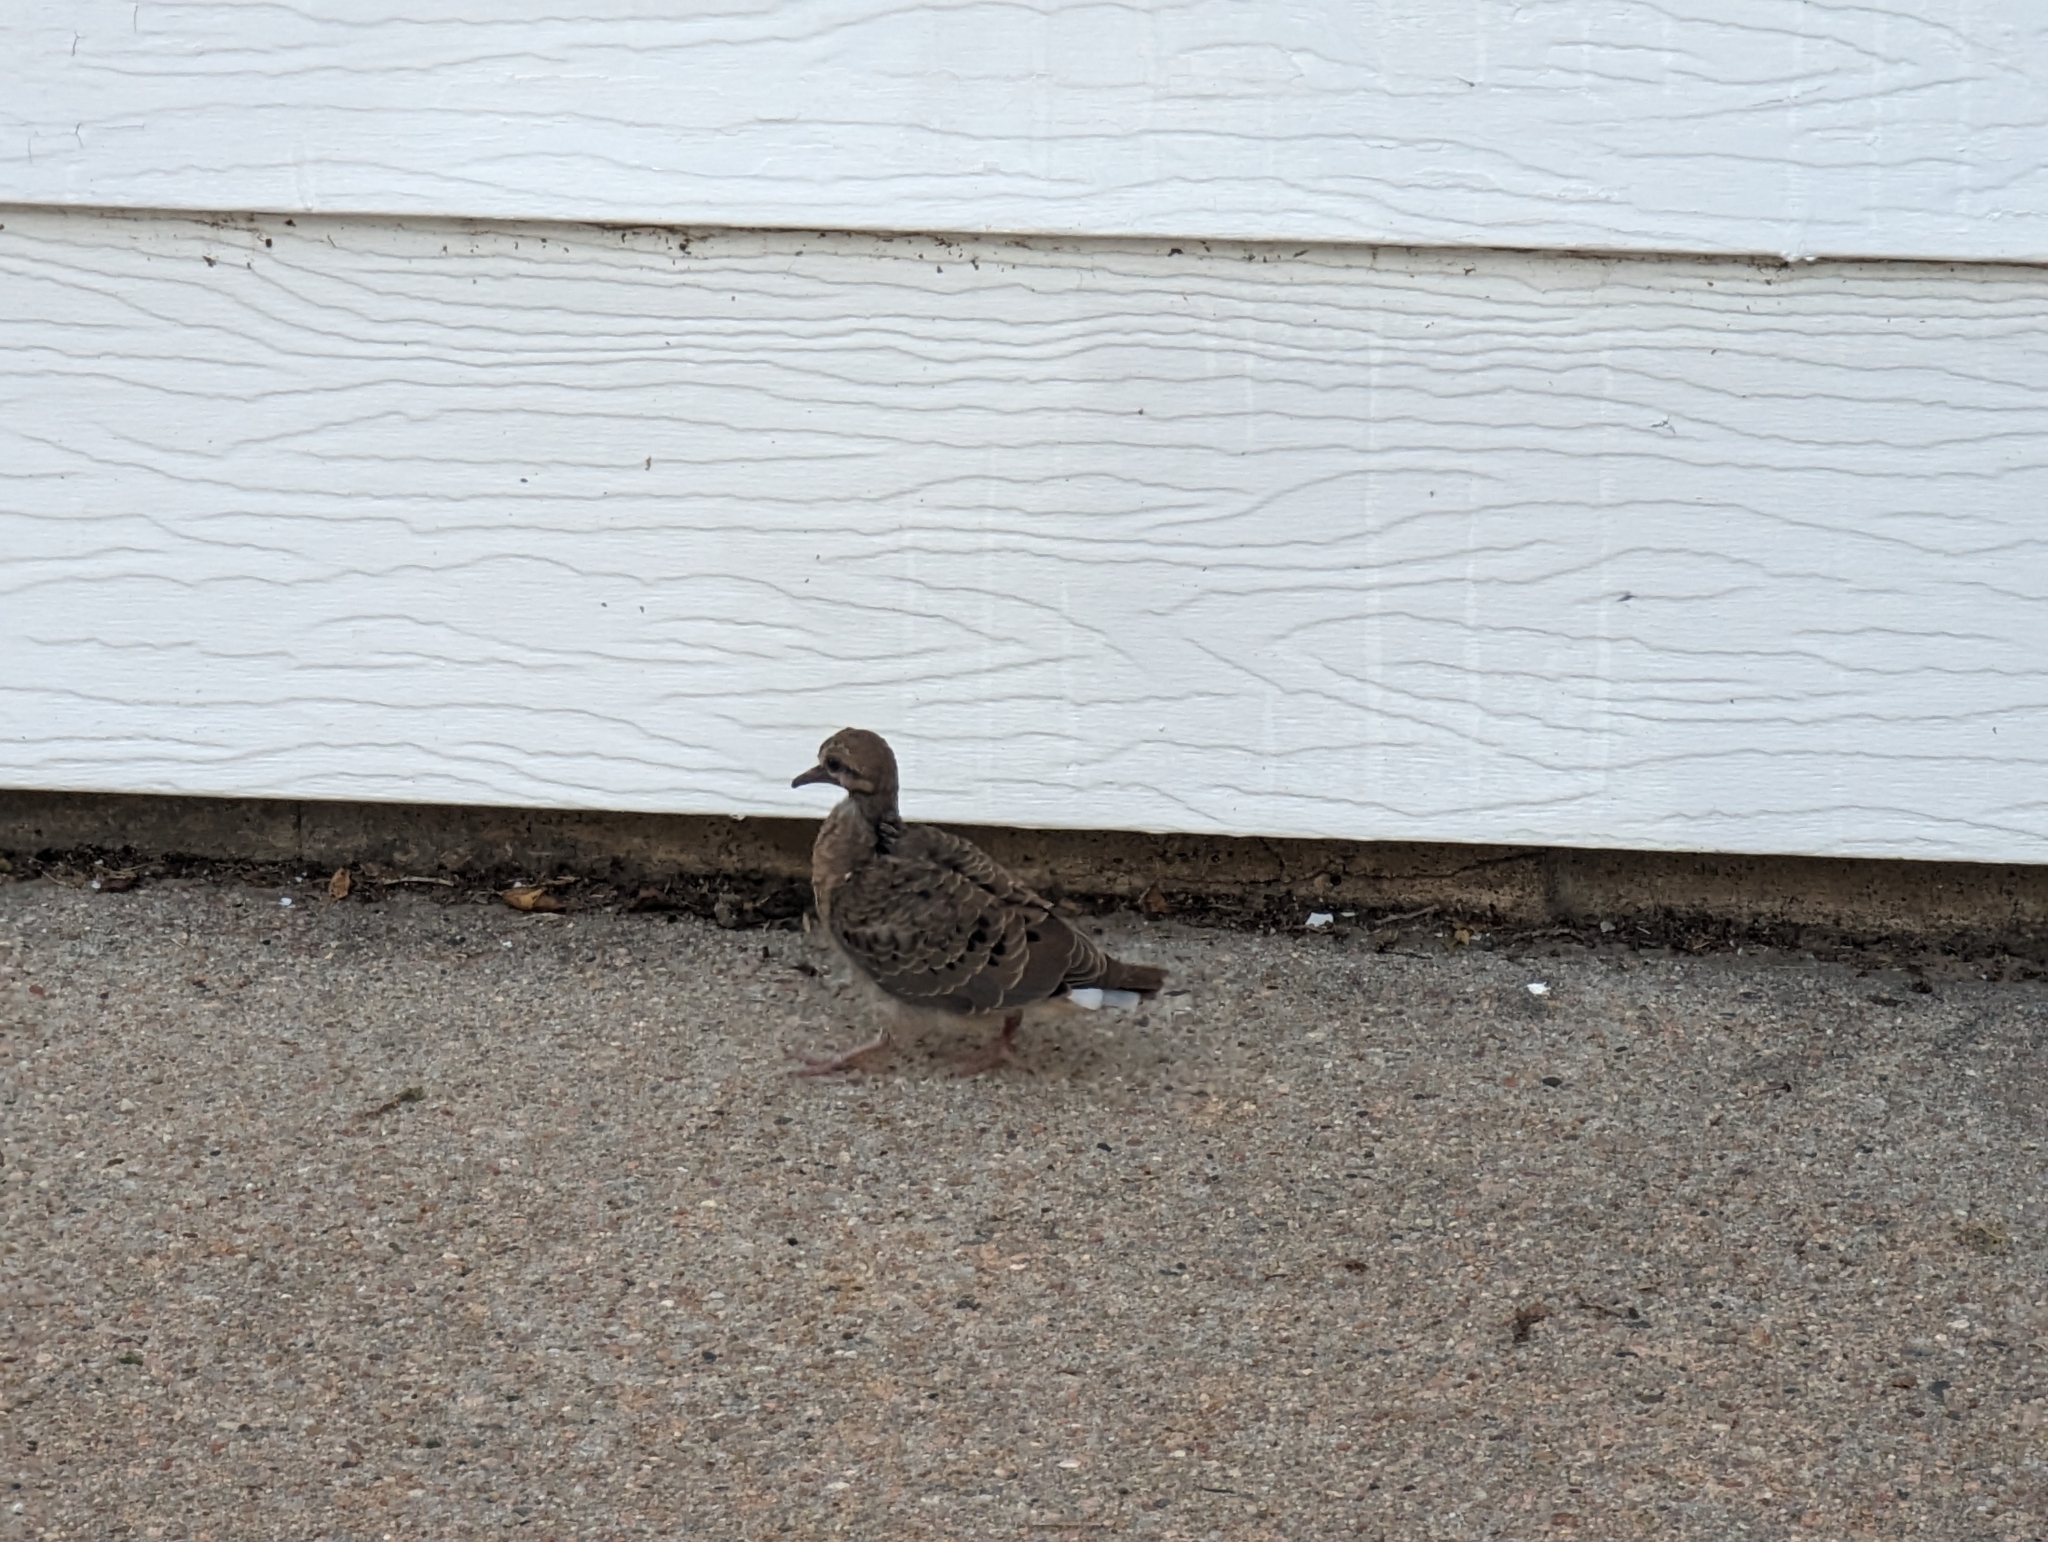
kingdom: Animalia
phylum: Chordata
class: Aves
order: Columbiformes
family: Columbidae
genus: Zenaida
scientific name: Zenaida macroura
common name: Mourning dove
